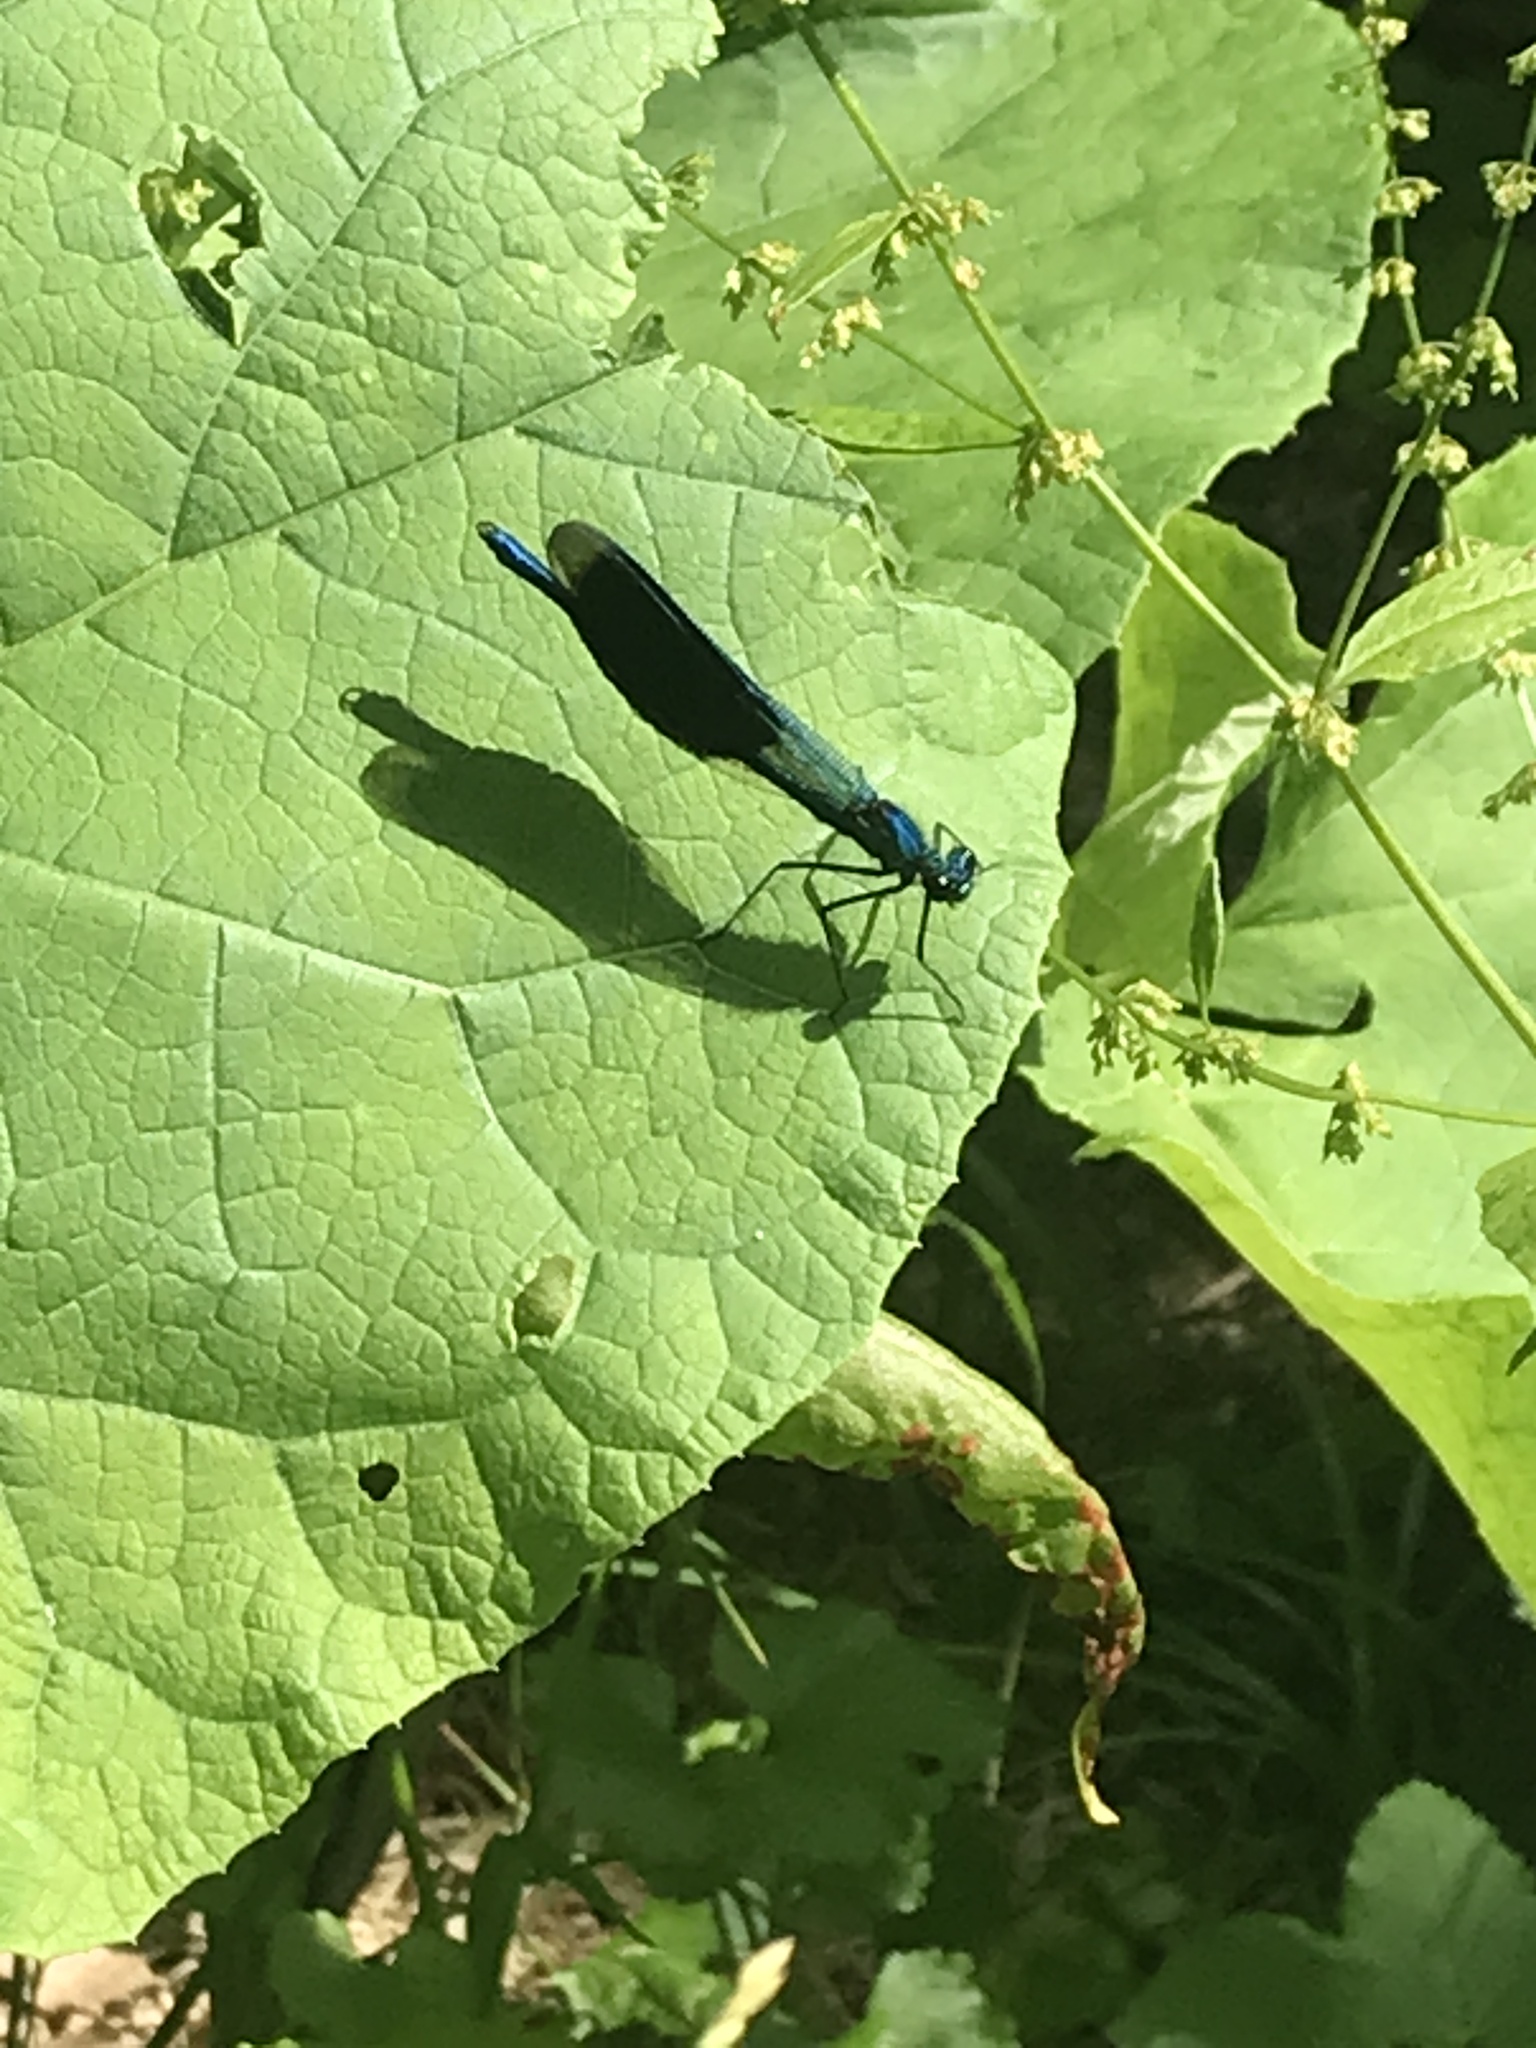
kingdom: Animalia
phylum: Arthropoda
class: Insecta
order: Odonata
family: Calopterygidae
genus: Calopteryx
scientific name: Calopteryx splendens
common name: Banded demoiselle
